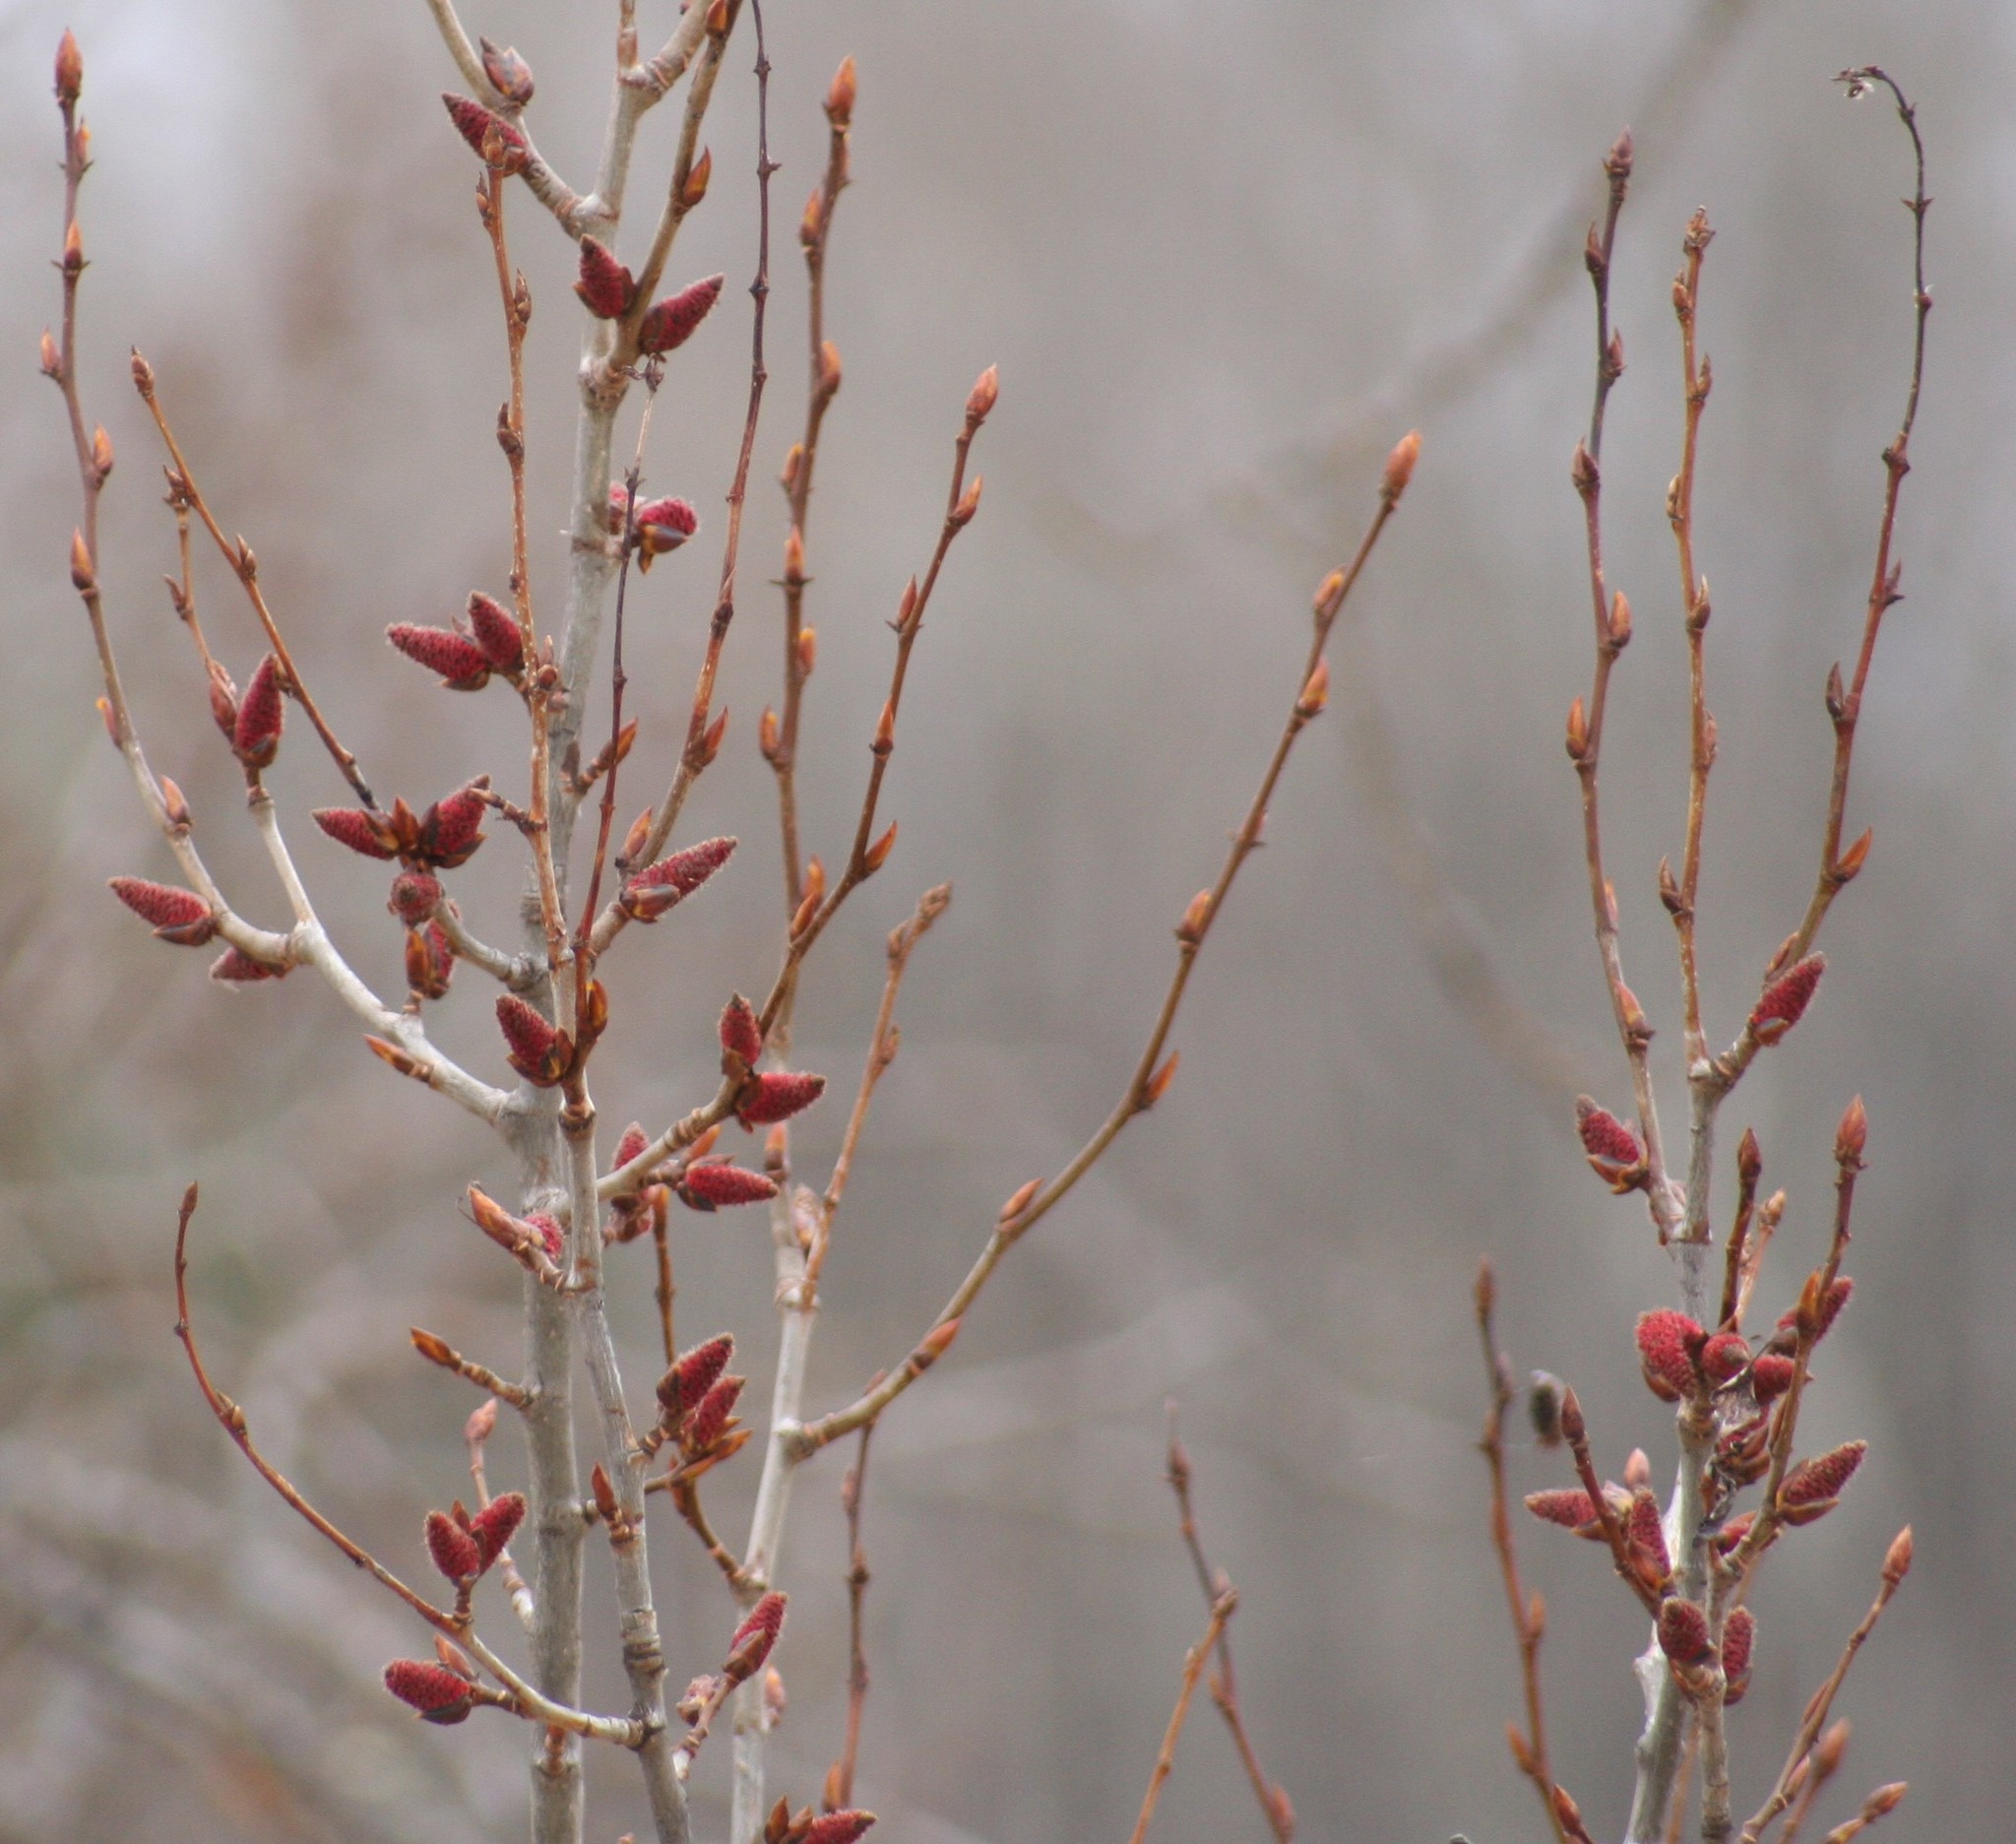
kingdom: Plantae
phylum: Tracheophyta
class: Magnoliopsida
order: Malpighiales
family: Salicaceae
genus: Populus
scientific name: Populus balsamifera
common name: Balsam poplar
